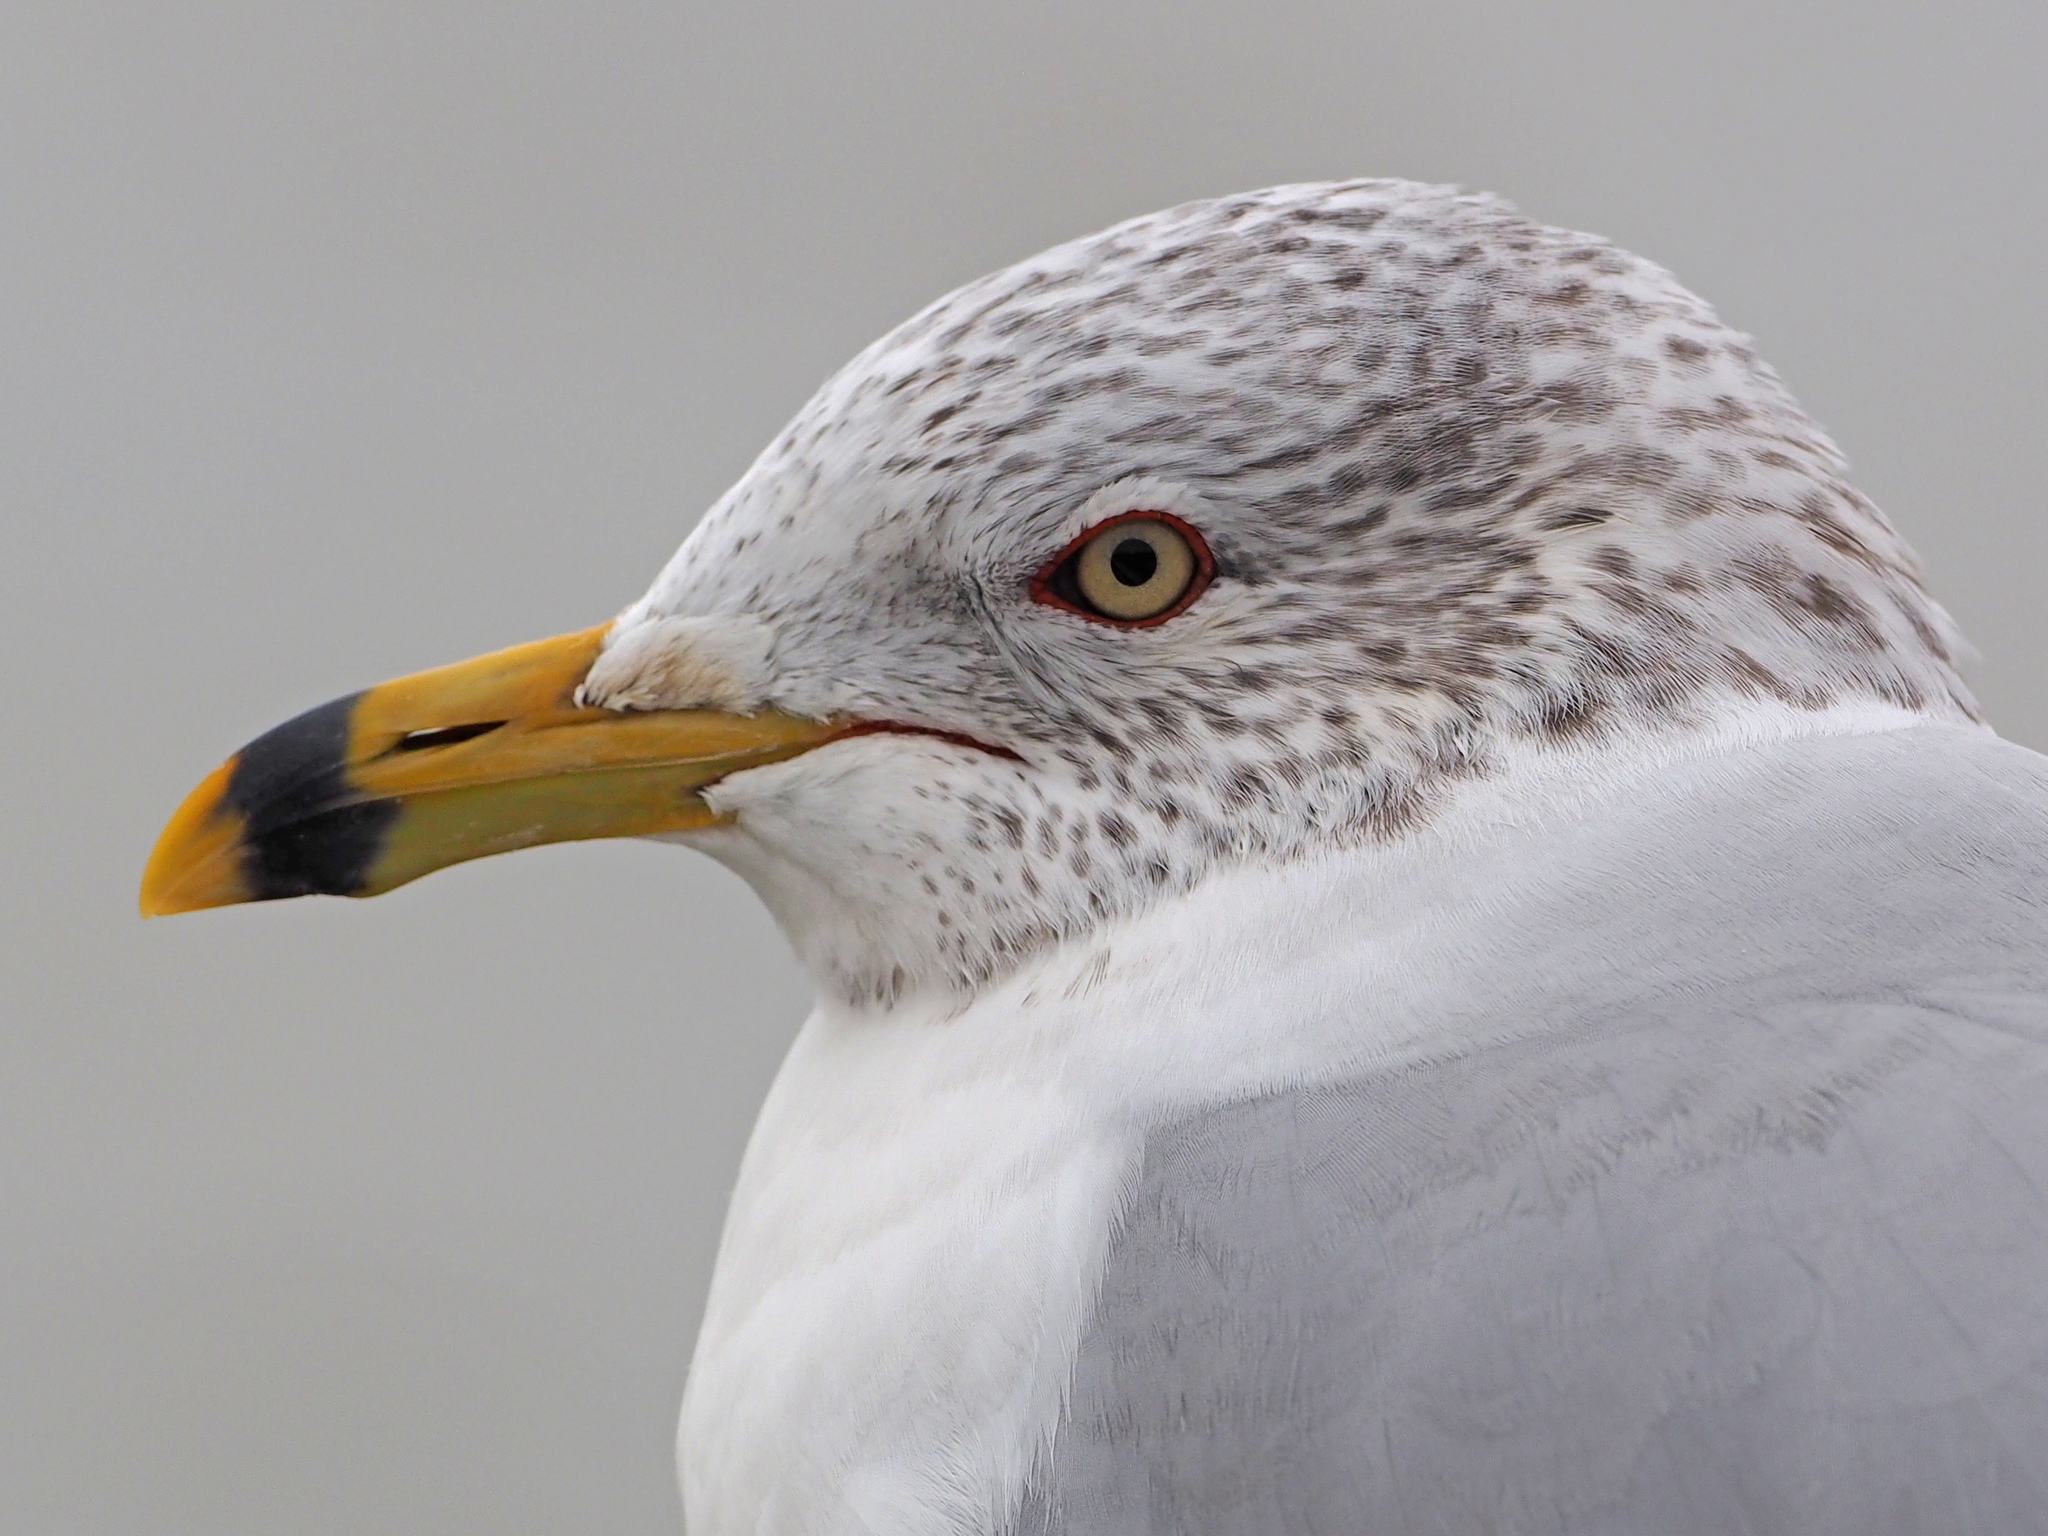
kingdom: Animalia
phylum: Chordata
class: Aves
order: Charadriiformes
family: Laridae
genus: Larus
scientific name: Larus delawarensis
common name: Ring-billed gull
